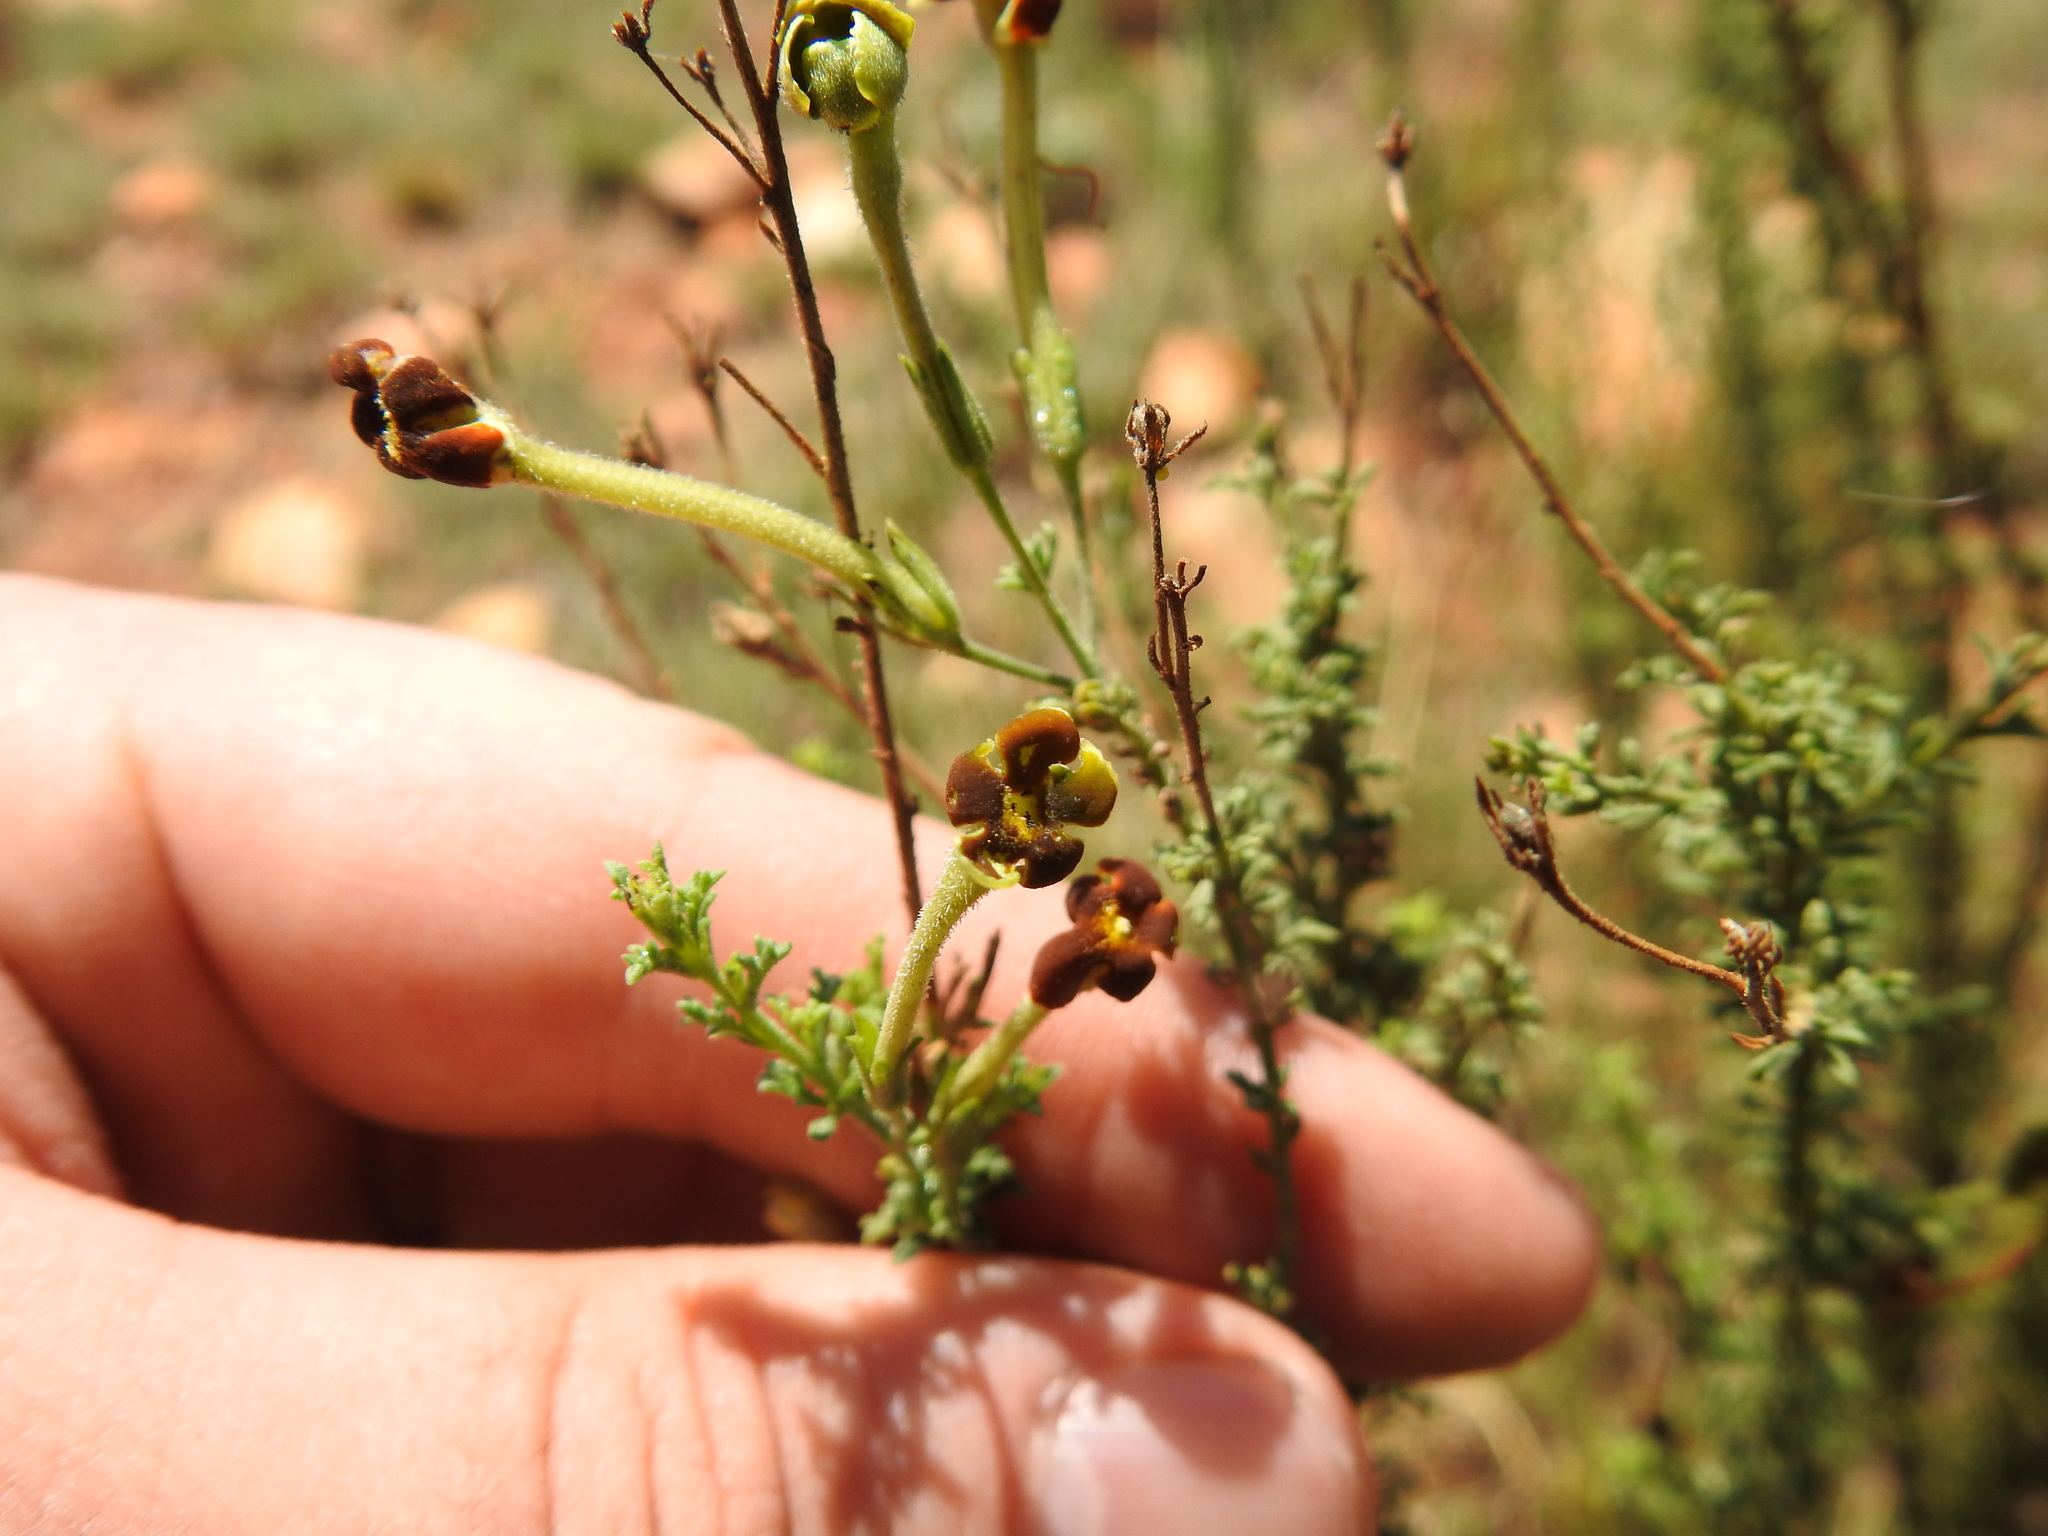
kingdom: Plantae
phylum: Tracheophyta
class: Magnoliopsida
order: Lamiales
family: Scrophulariaceae
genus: Jamesbrittenia
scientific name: Jamesbrittenia burkeana
